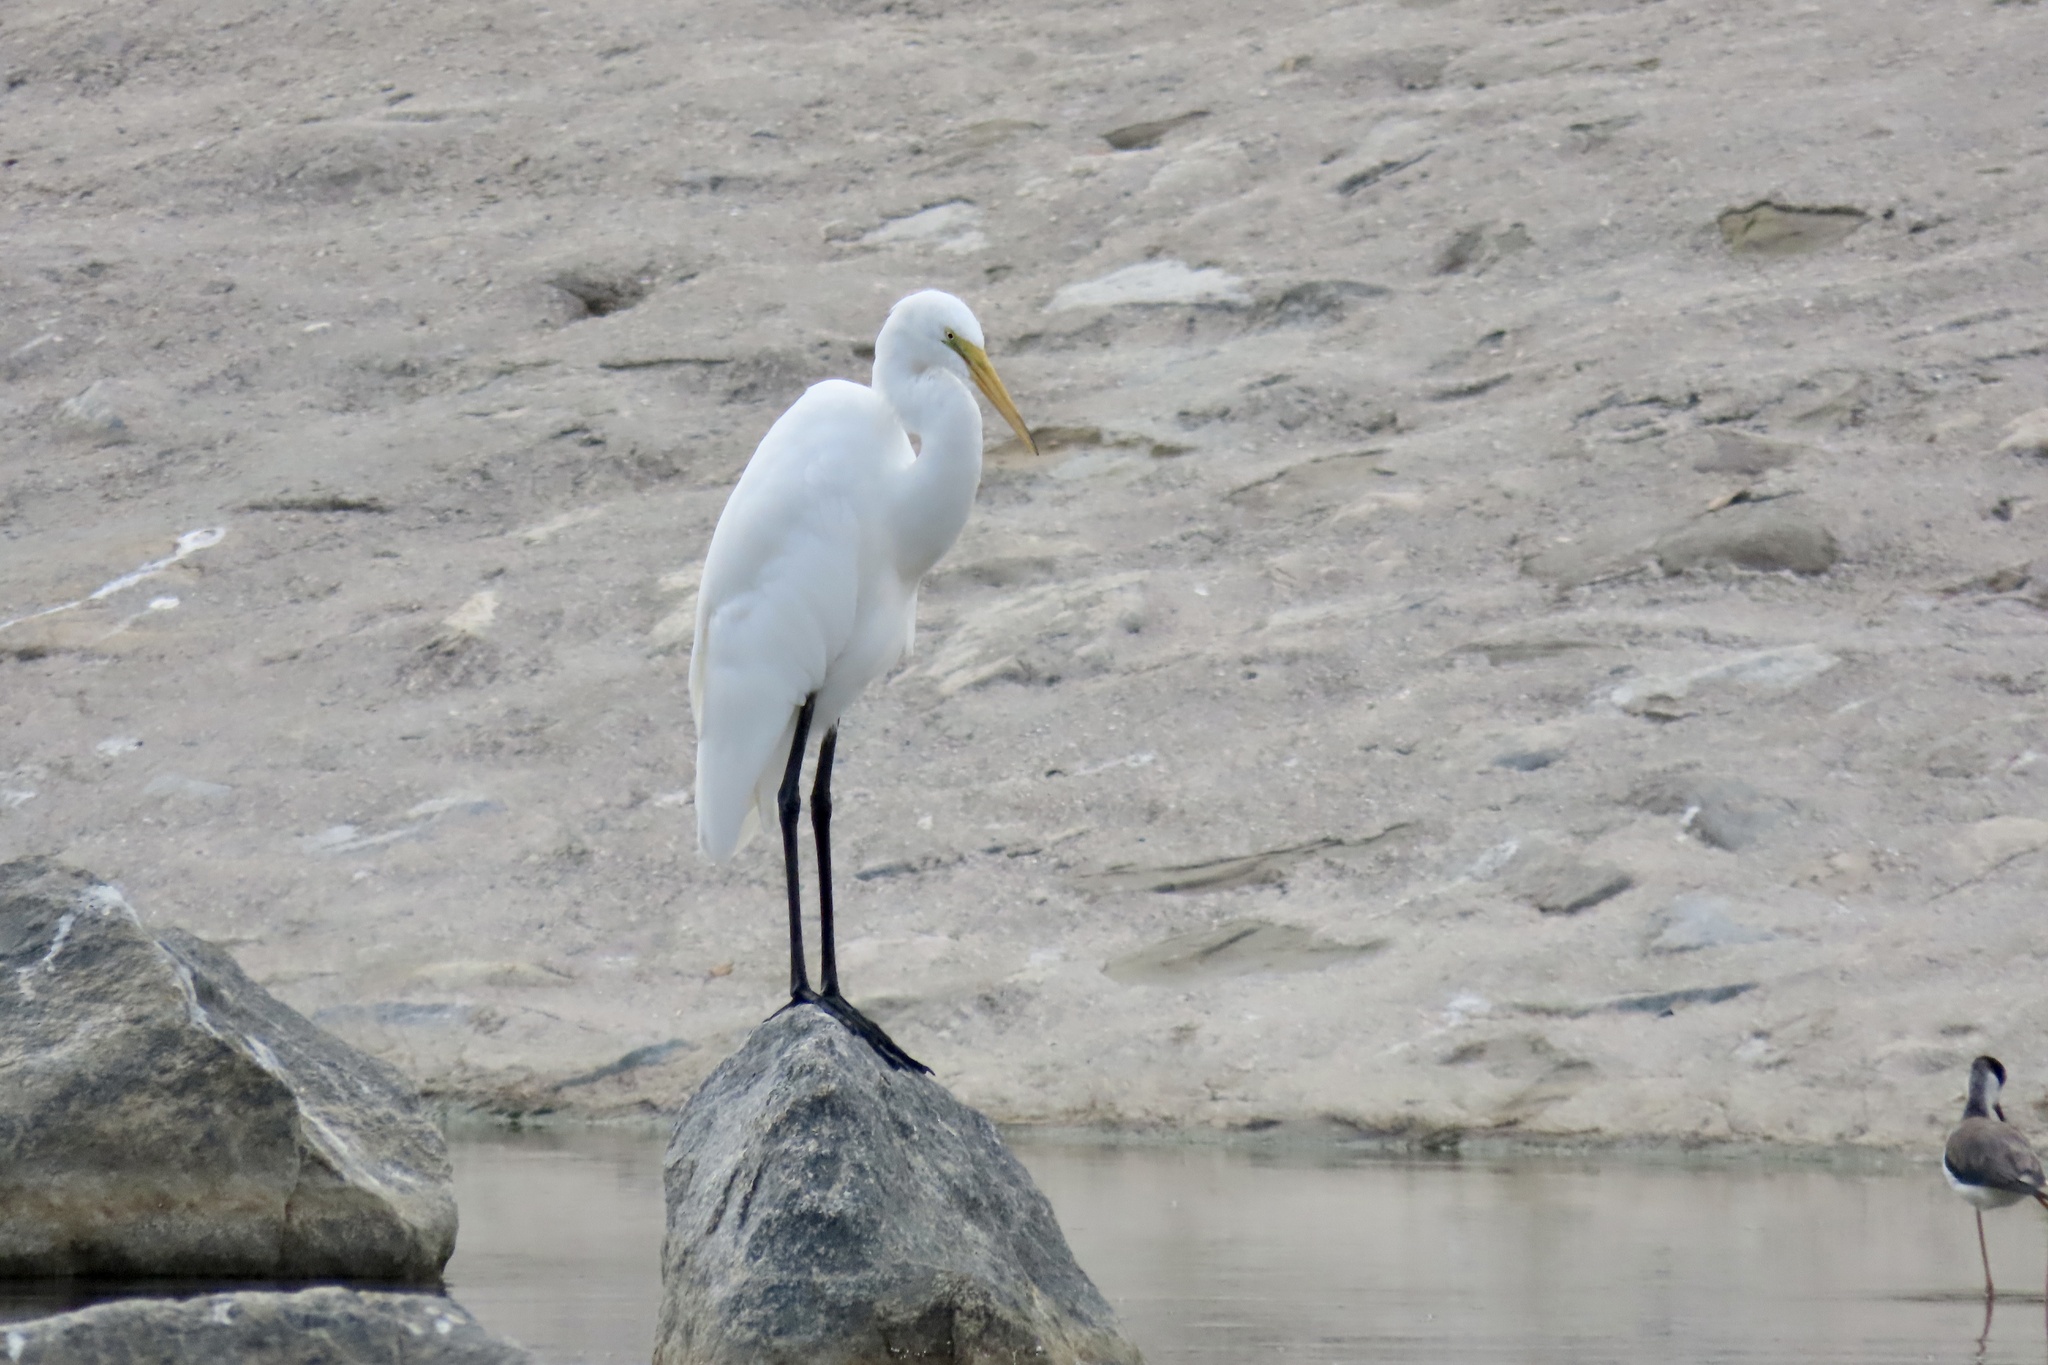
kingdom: Animalia
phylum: Chordata
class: Aves
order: Pelecaniformes
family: Ardeidae
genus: Ardea
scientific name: Ardea alba
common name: Great egret
